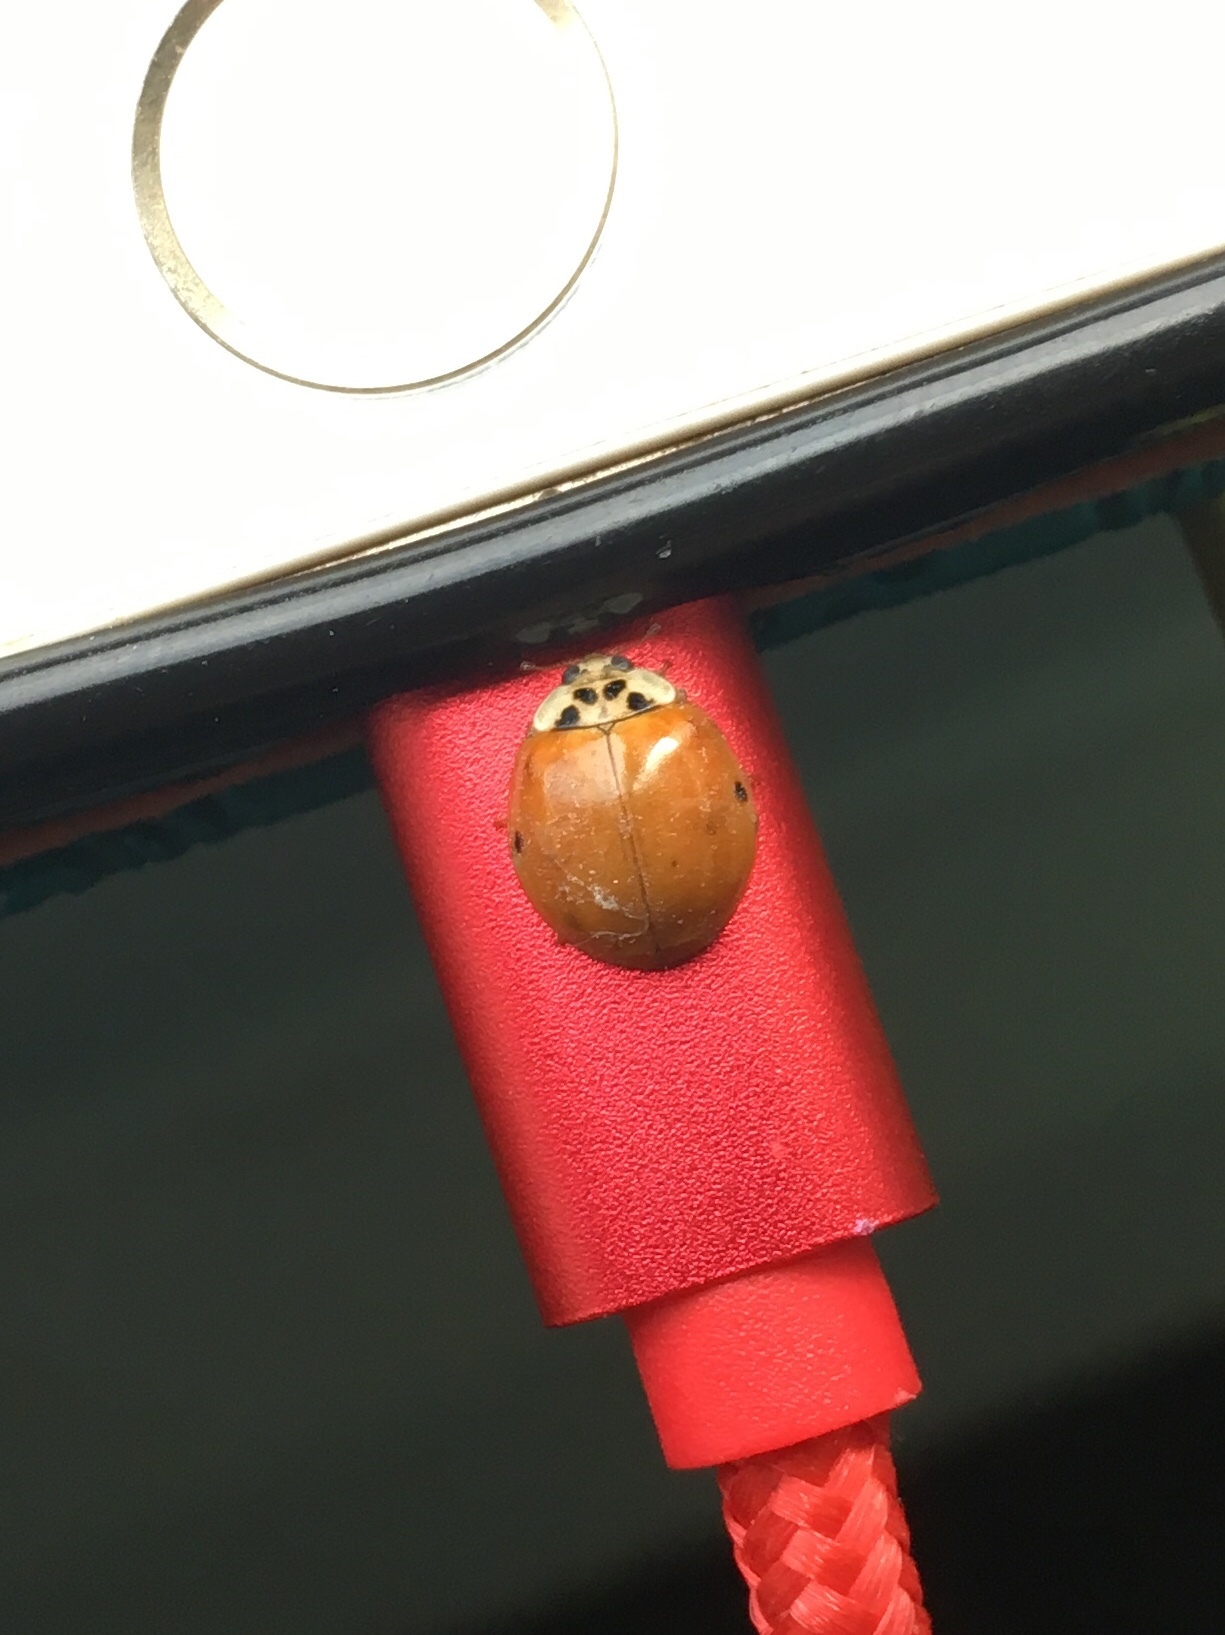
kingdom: Animalia
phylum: Arthropoda
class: Insecta
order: Coleoptera
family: Coccinellidae
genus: Harmonia
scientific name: Harmonia axyridis
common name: Harlequin ladybird
